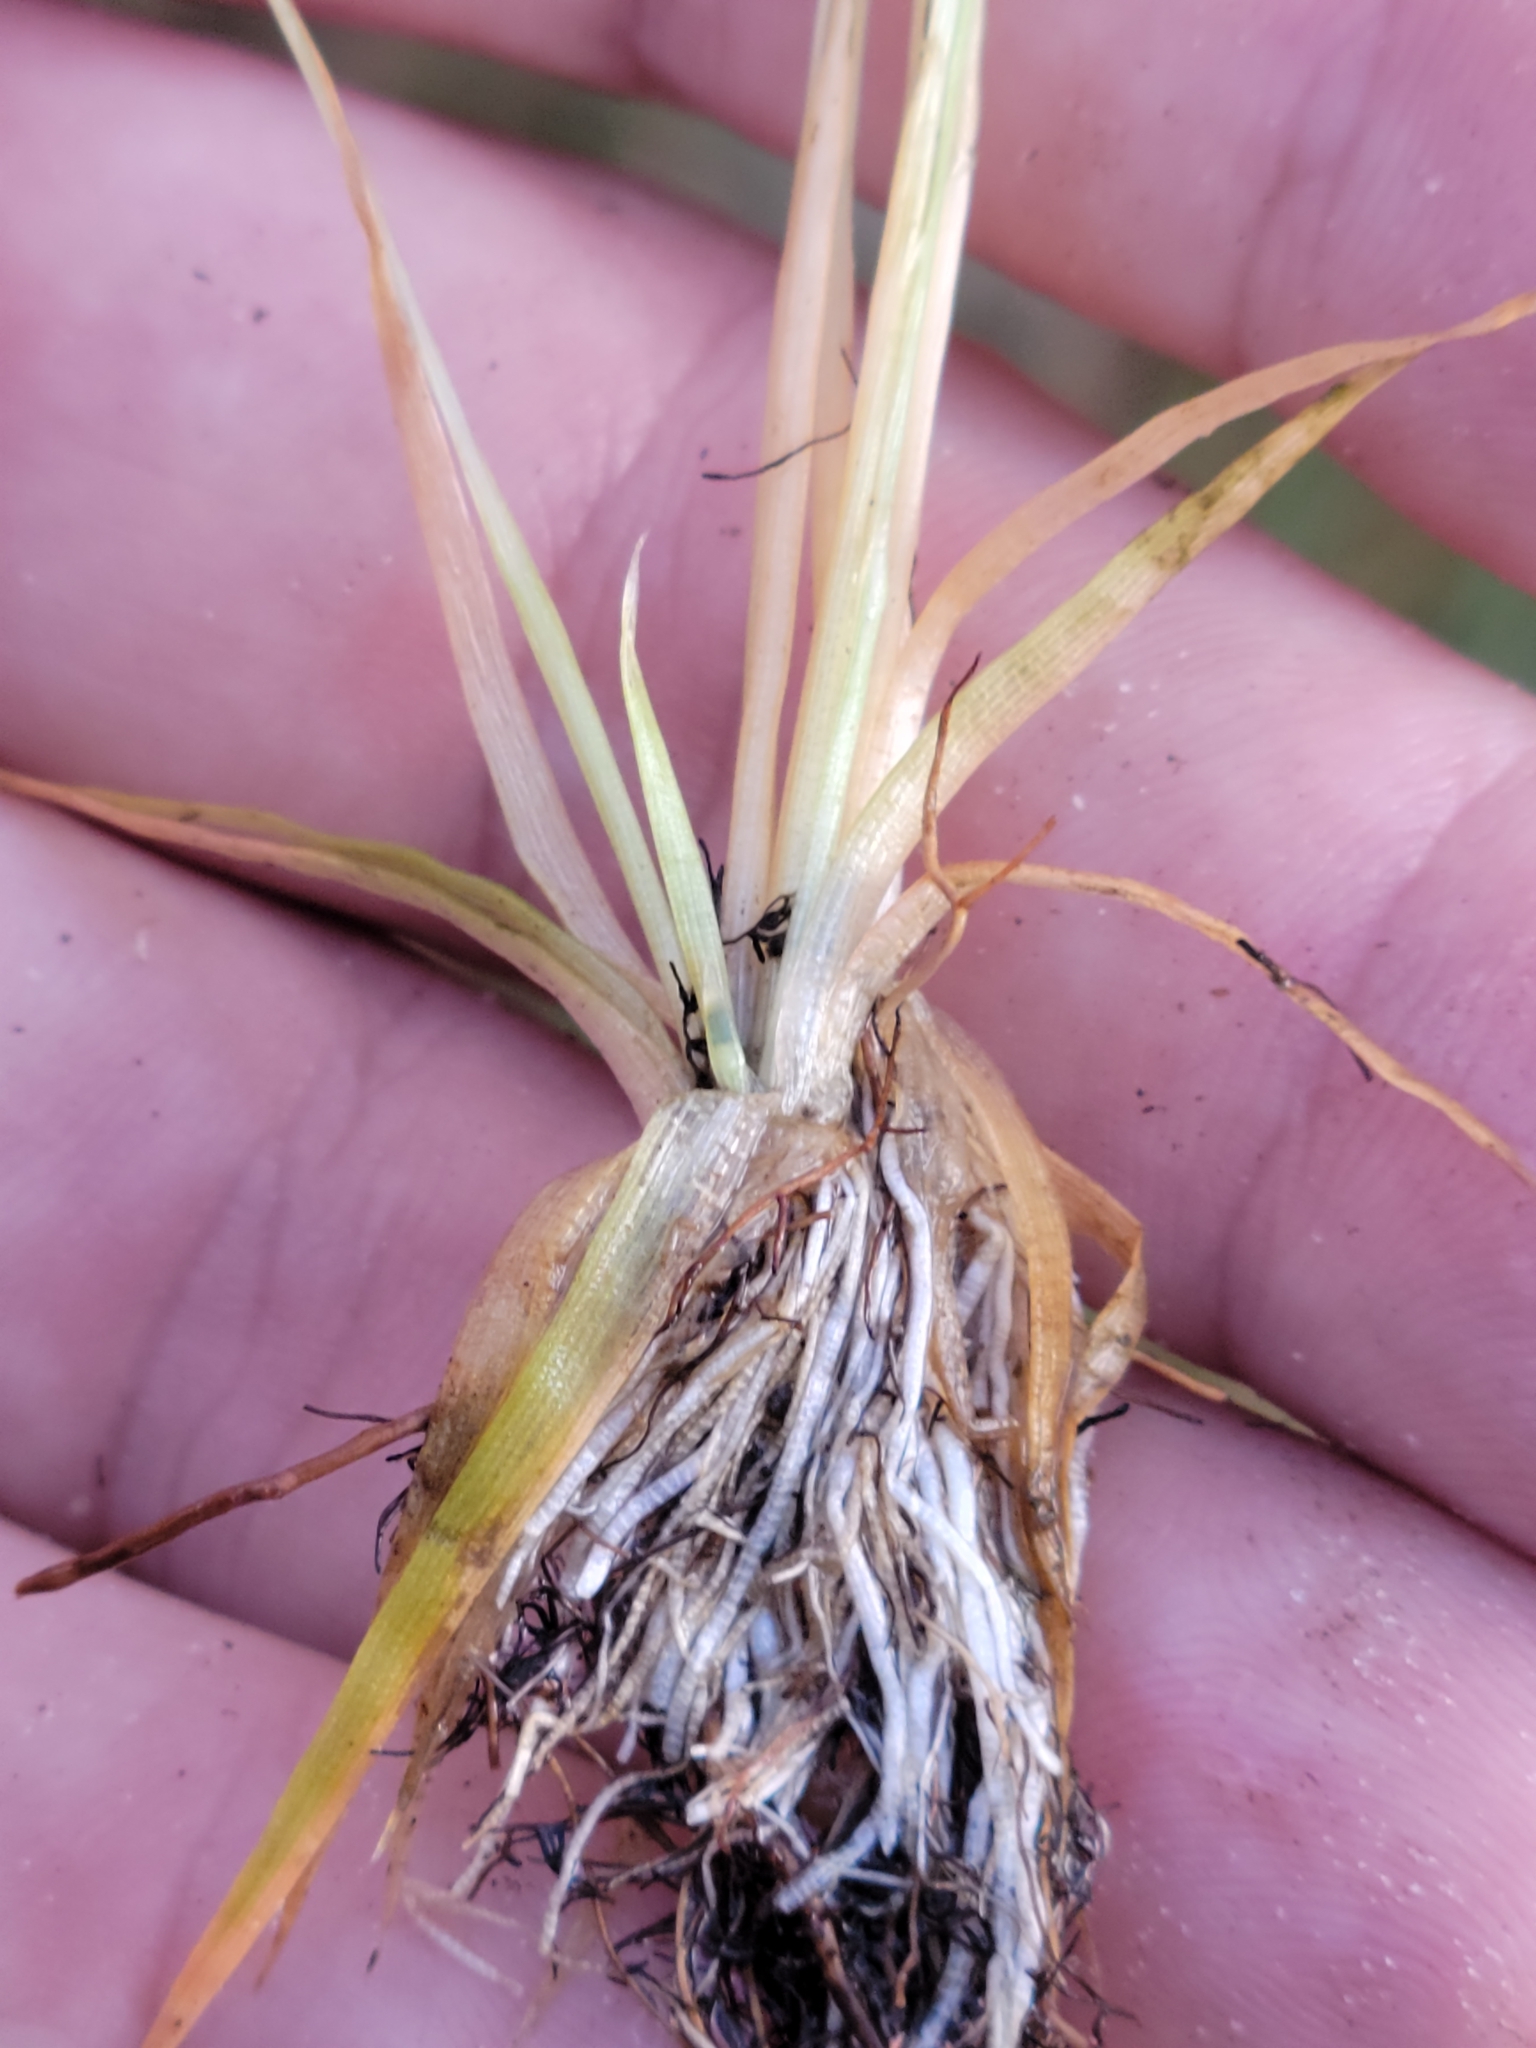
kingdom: Plantae
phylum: Tracheophyta
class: Liliopsida
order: Poales
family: Eriocaulaceae
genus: Eriocaulon
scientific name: Eriocaulon ravenelii
